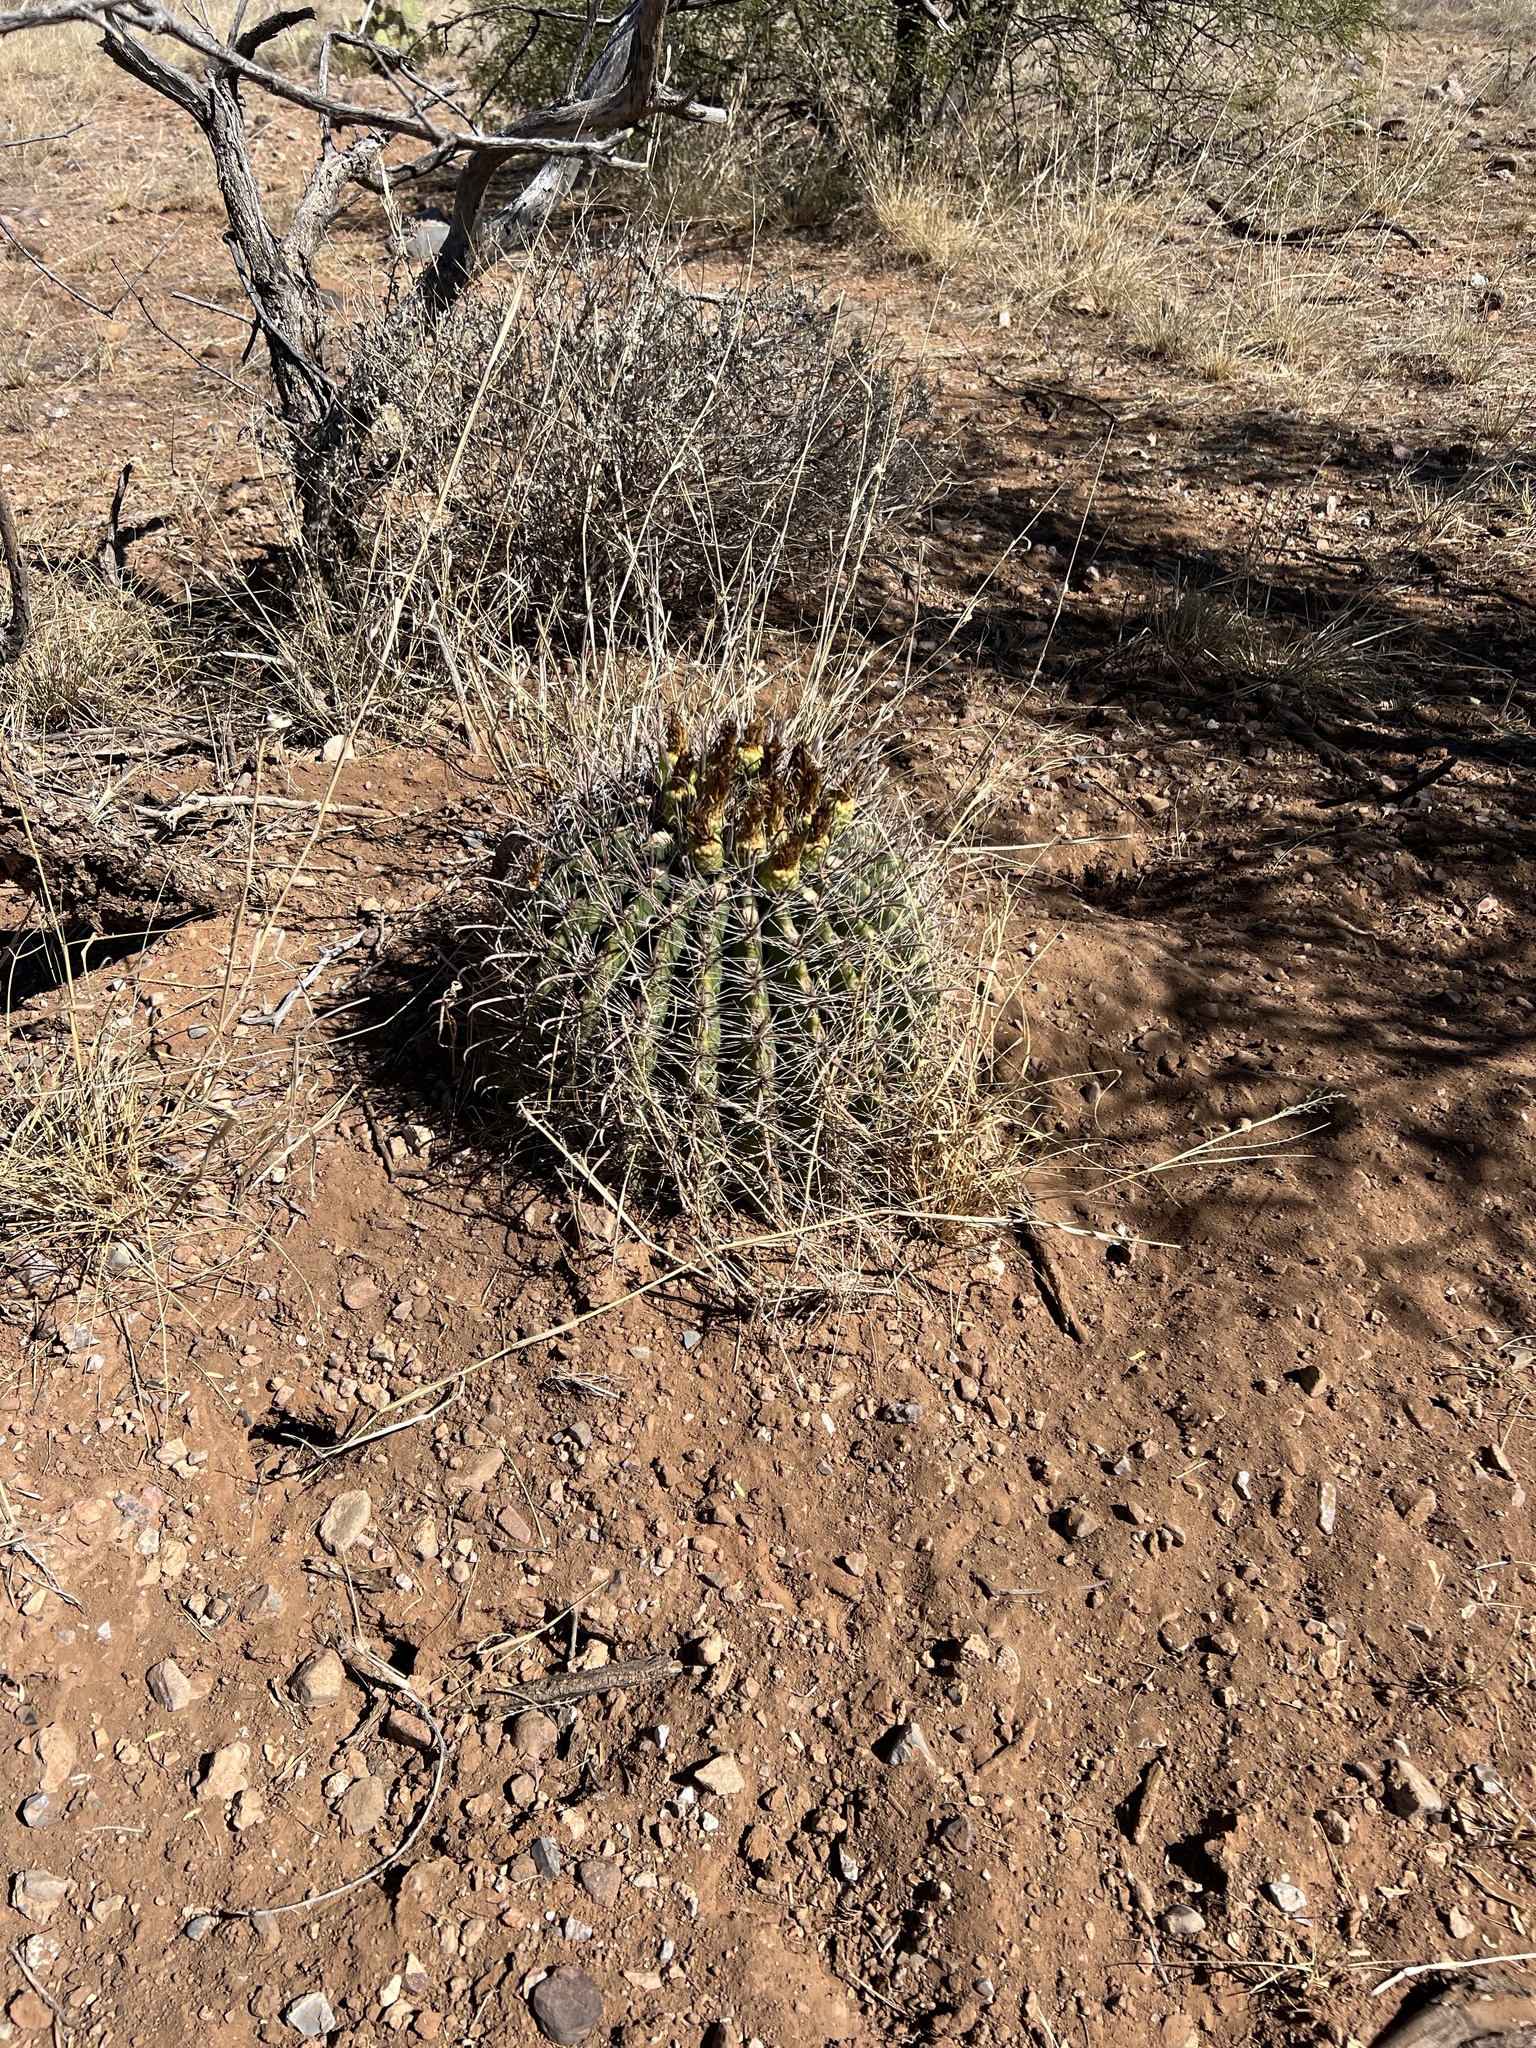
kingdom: Plantae
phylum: Tracheophyta
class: Magnoliopsida
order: Caryophyllales
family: Cactaceae
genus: Ferocactus
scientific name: Ferocactus wislizeni
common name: Candy barrel cactus
